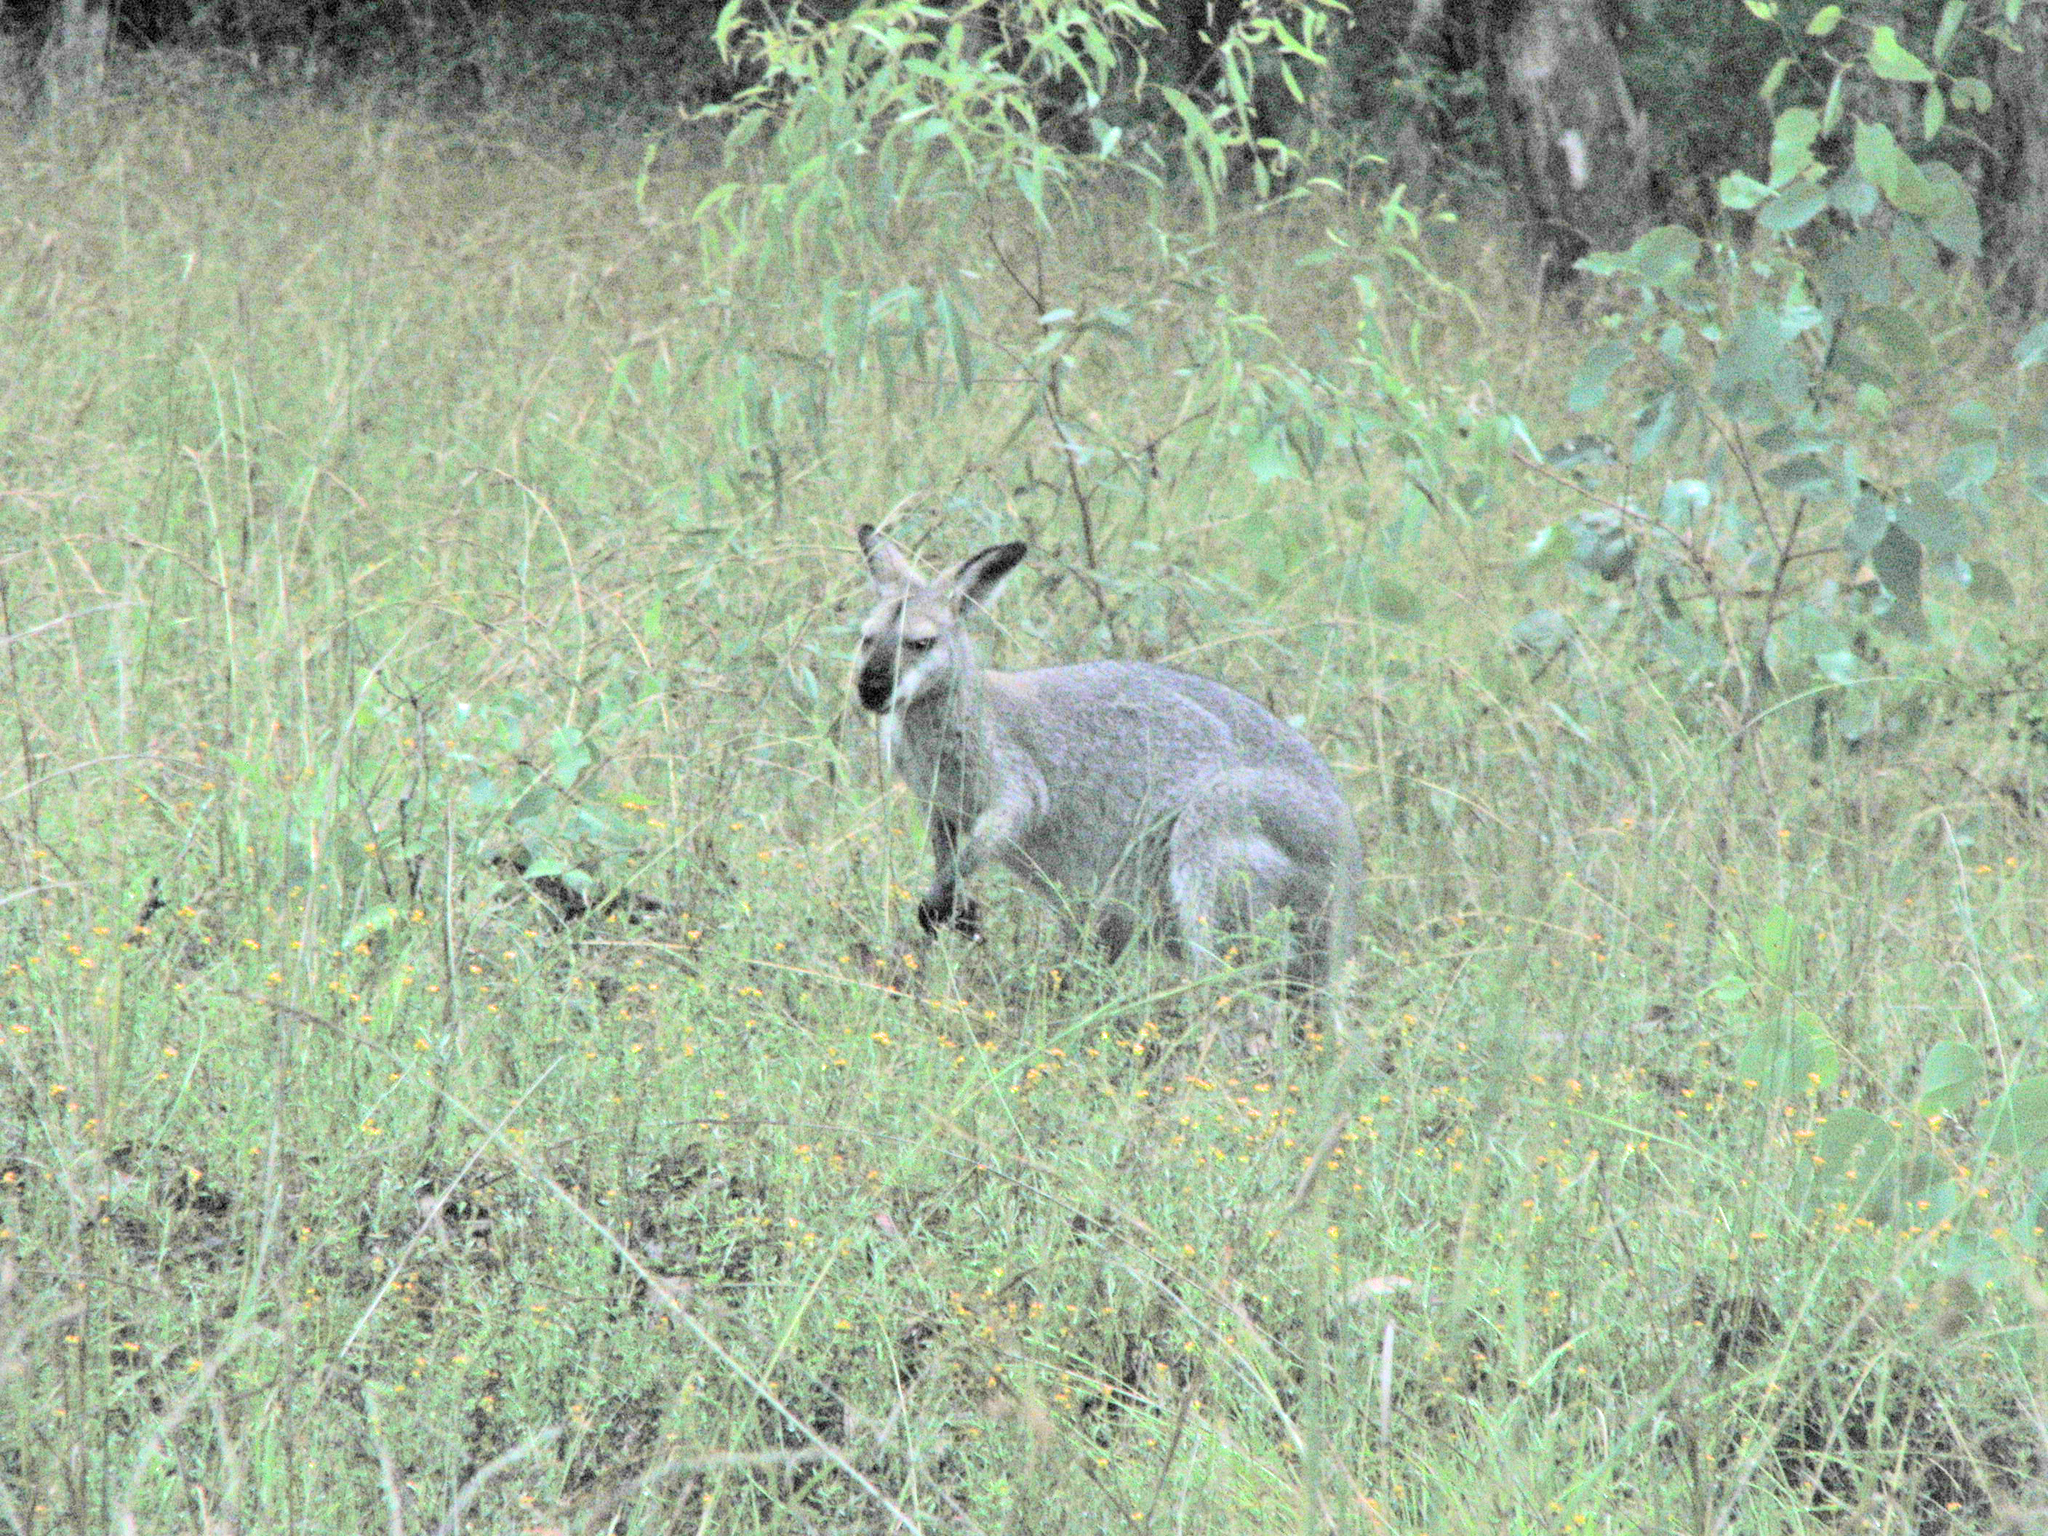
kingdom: Animalia
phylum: Chordata
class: Mammalia
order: Diprotodontia
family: Macropodidae
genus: Notamacropus
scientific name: Notamacropus rufogriseus
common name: Red-necked wallaby
